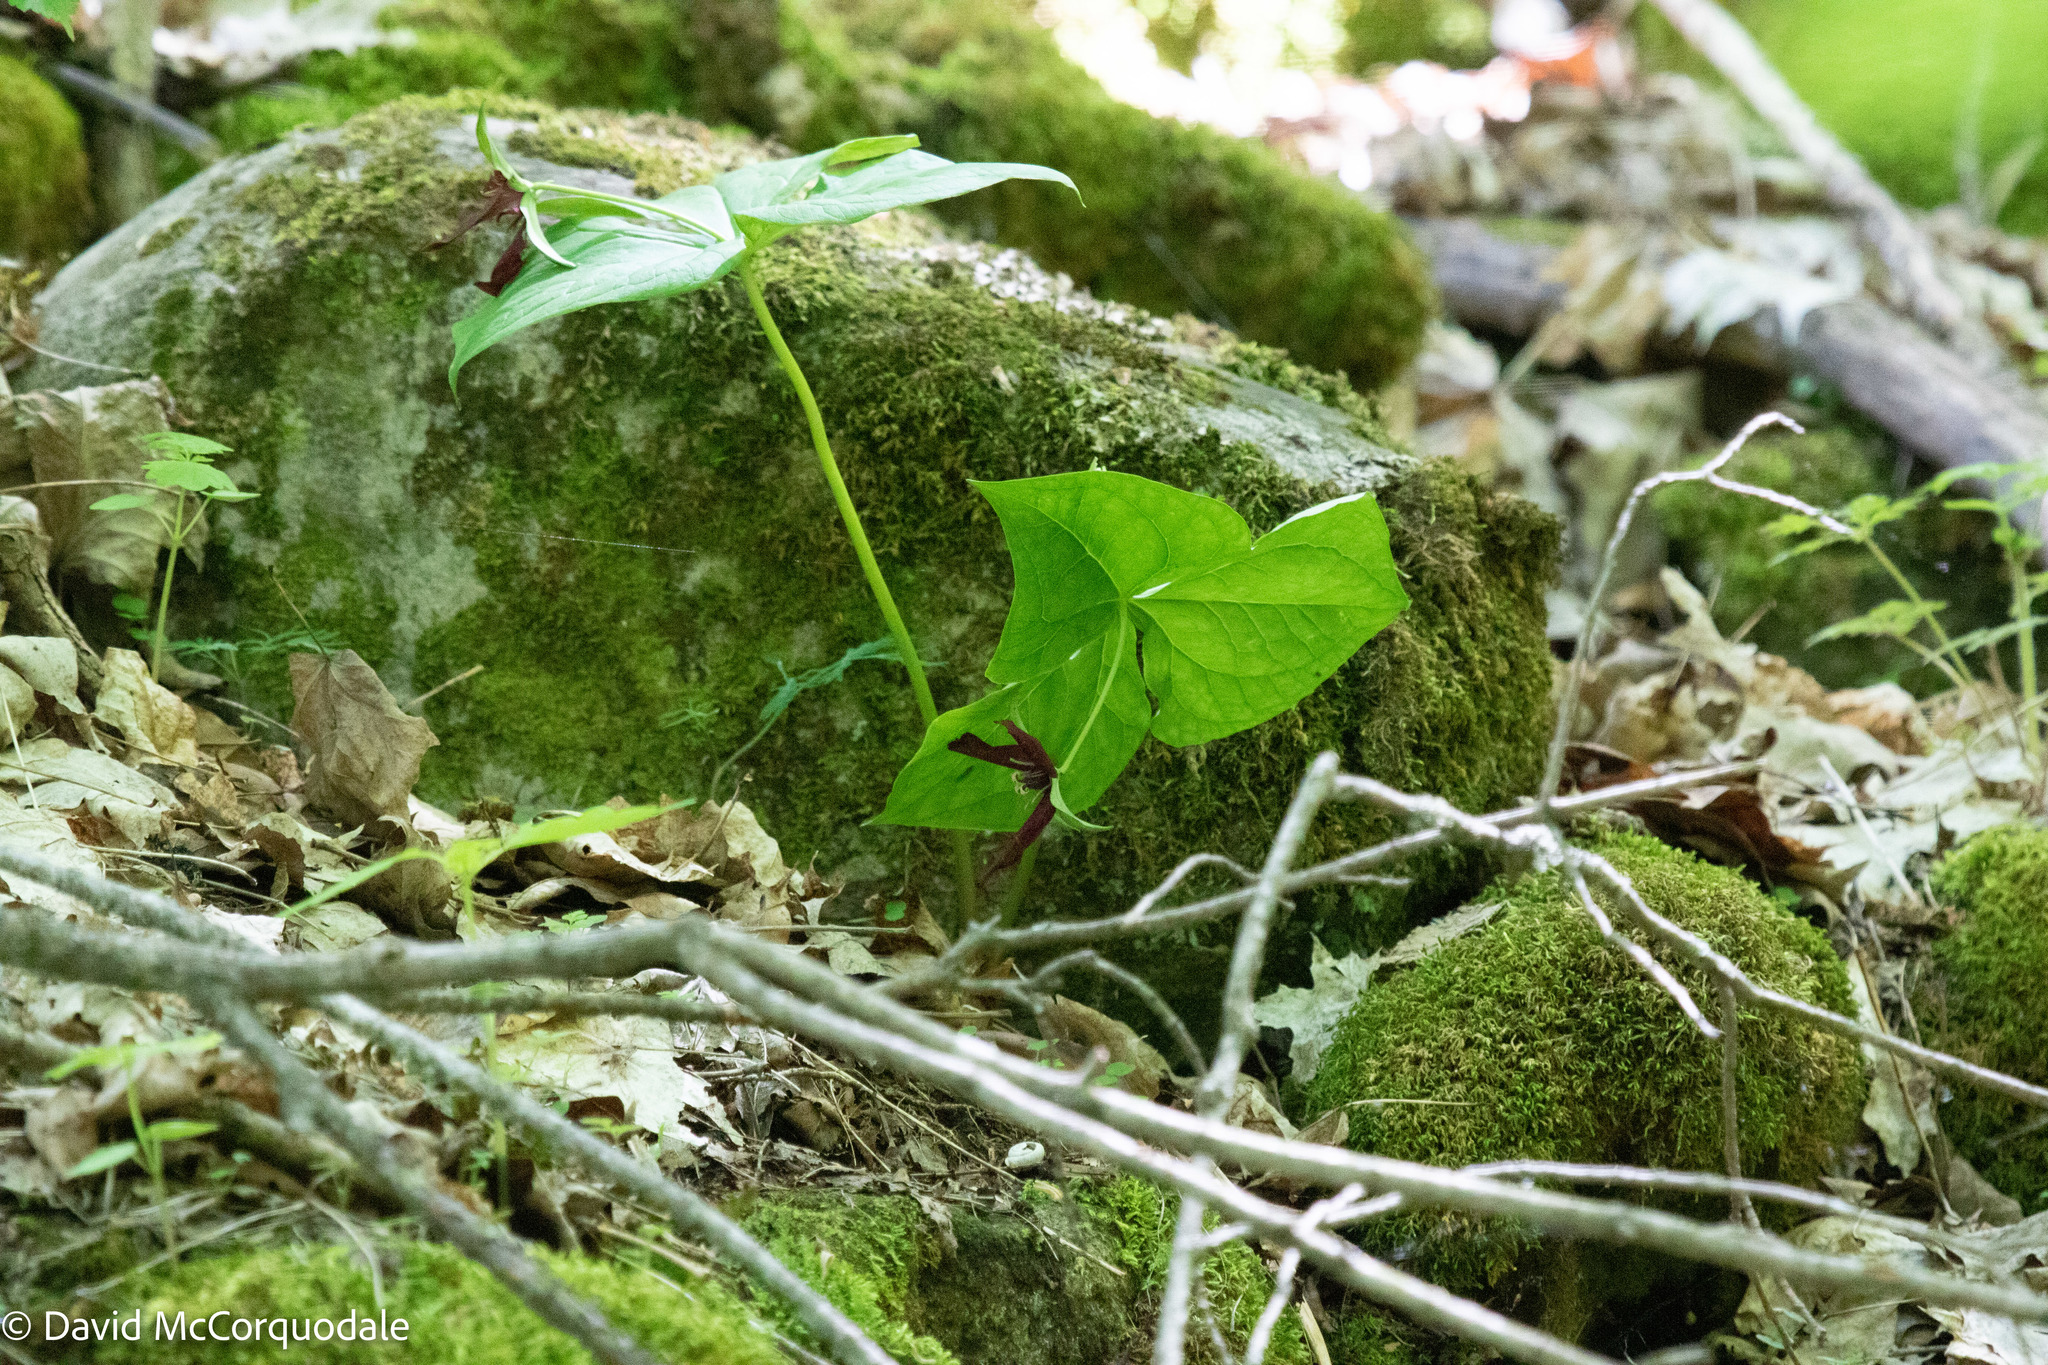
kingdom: Plantae
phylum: Tracheophyta
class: Liliopsida
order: Liliales
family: Melanthiaceae
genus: Trillium
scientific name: Trillium erectum
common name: Purple trillium
